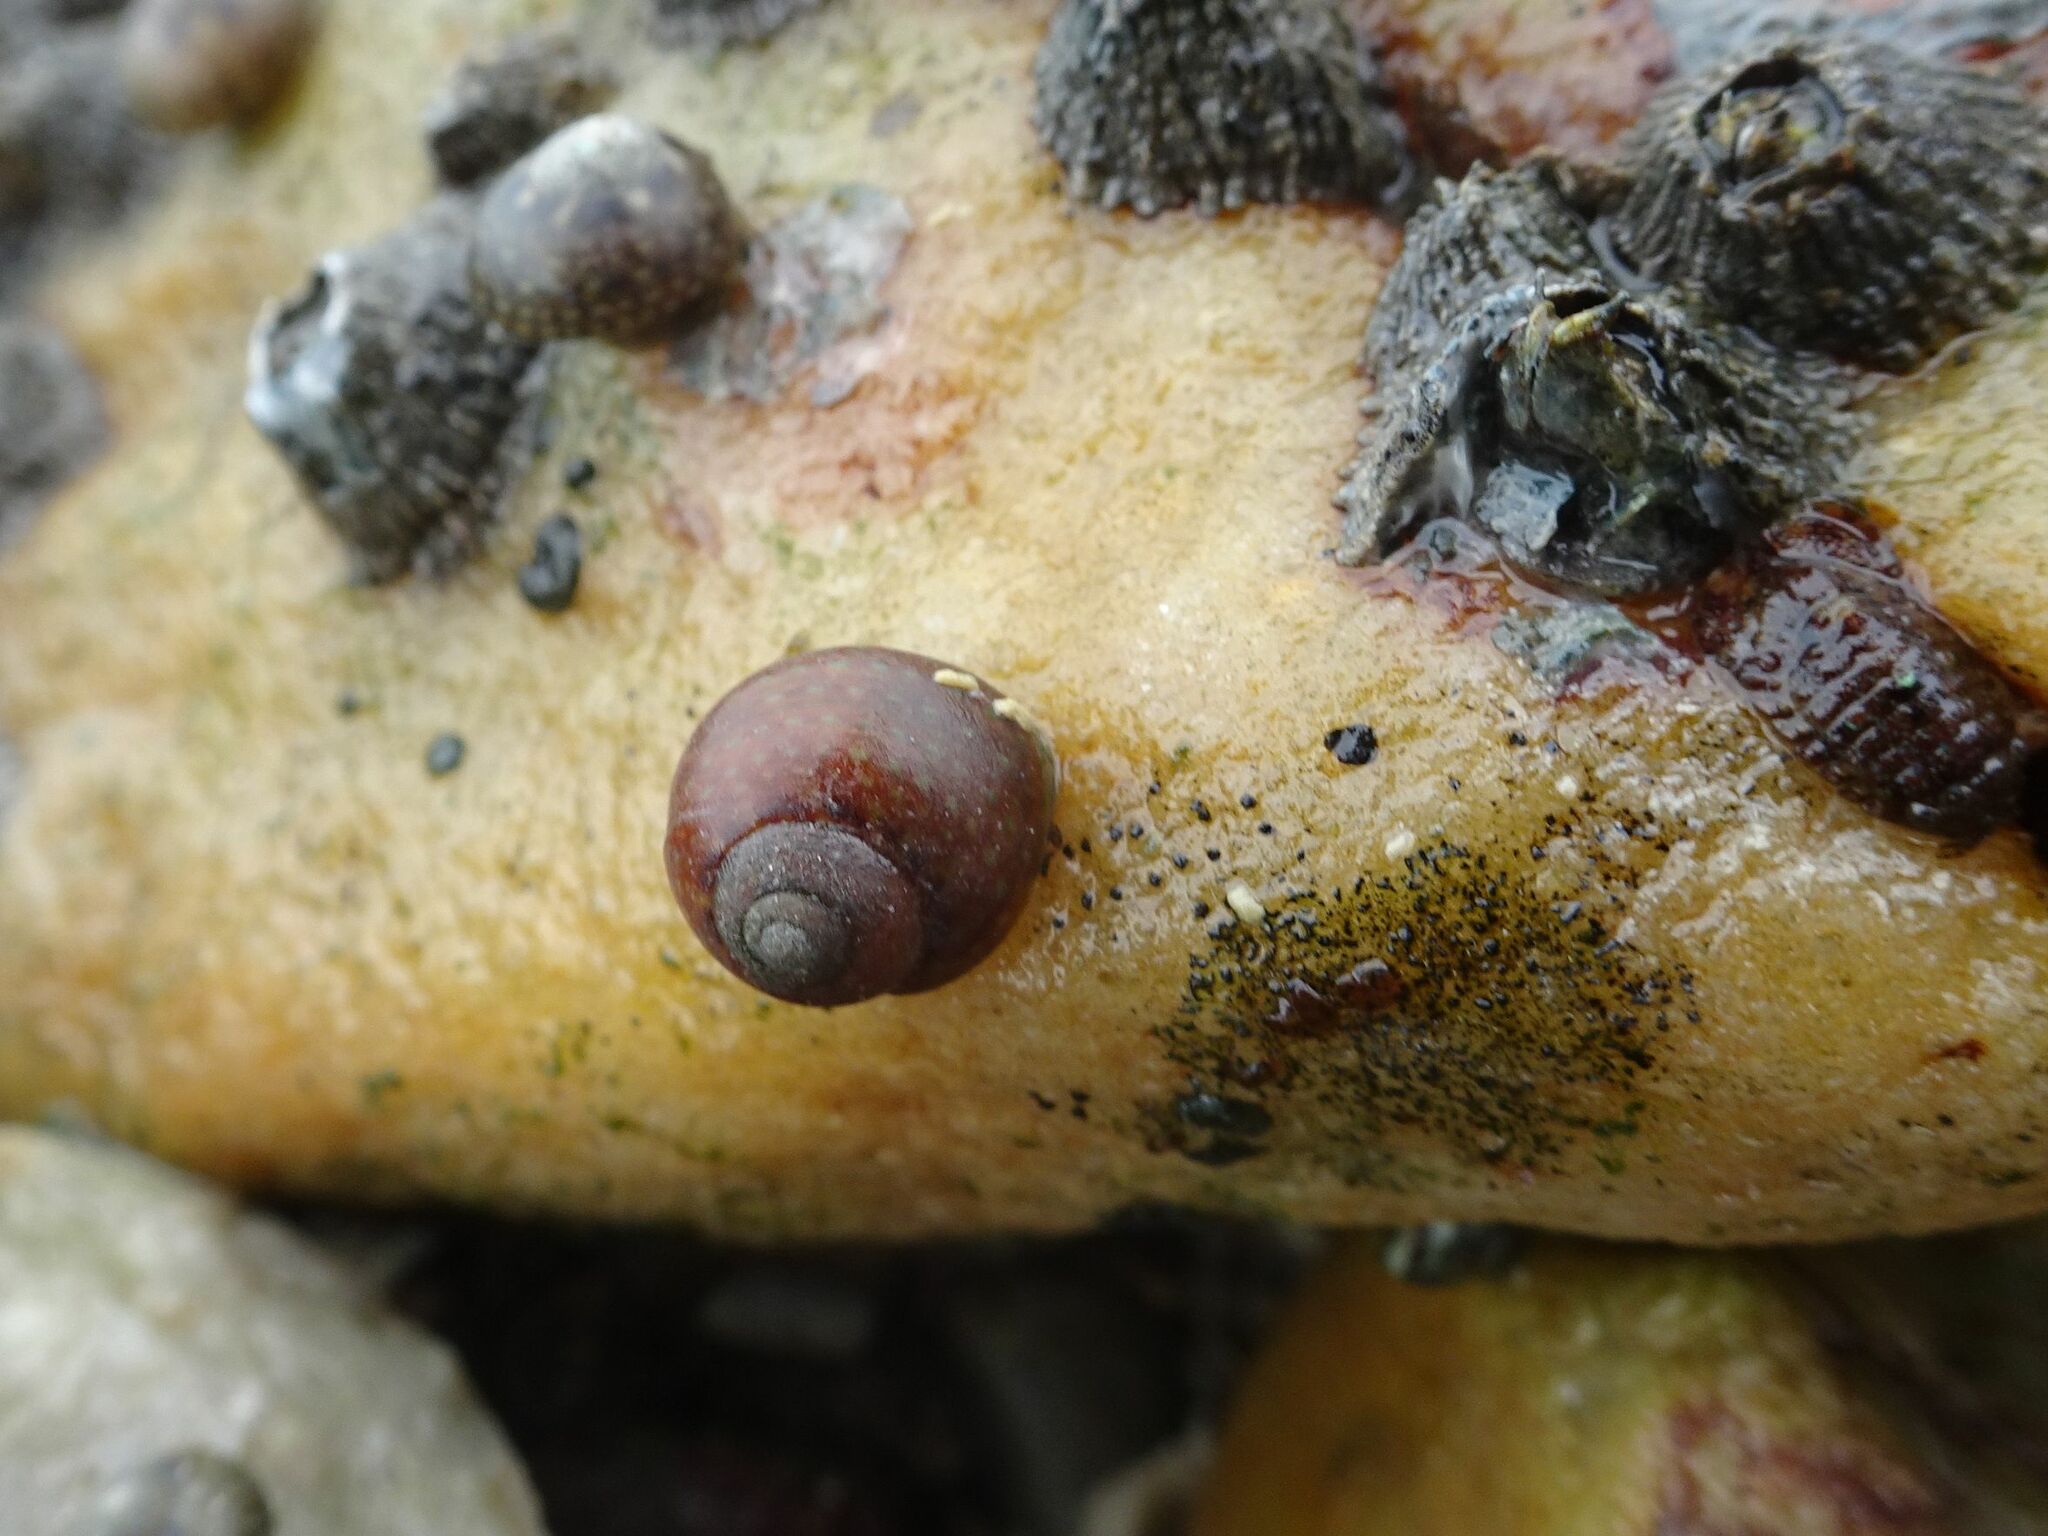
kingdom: Animalia
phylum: Mollusca
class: Gastropoda
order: Trochida
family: Trochidae
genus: Oxystele
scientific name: Oxystele impervia
